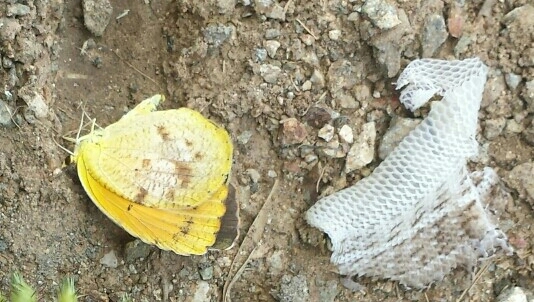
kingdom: Animalia
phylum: Arthropoda
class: Insecta
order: Lepidoptera
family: Pieridae
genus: Abaeis
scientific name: Abaeis nicippe
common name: Sleepy orange
